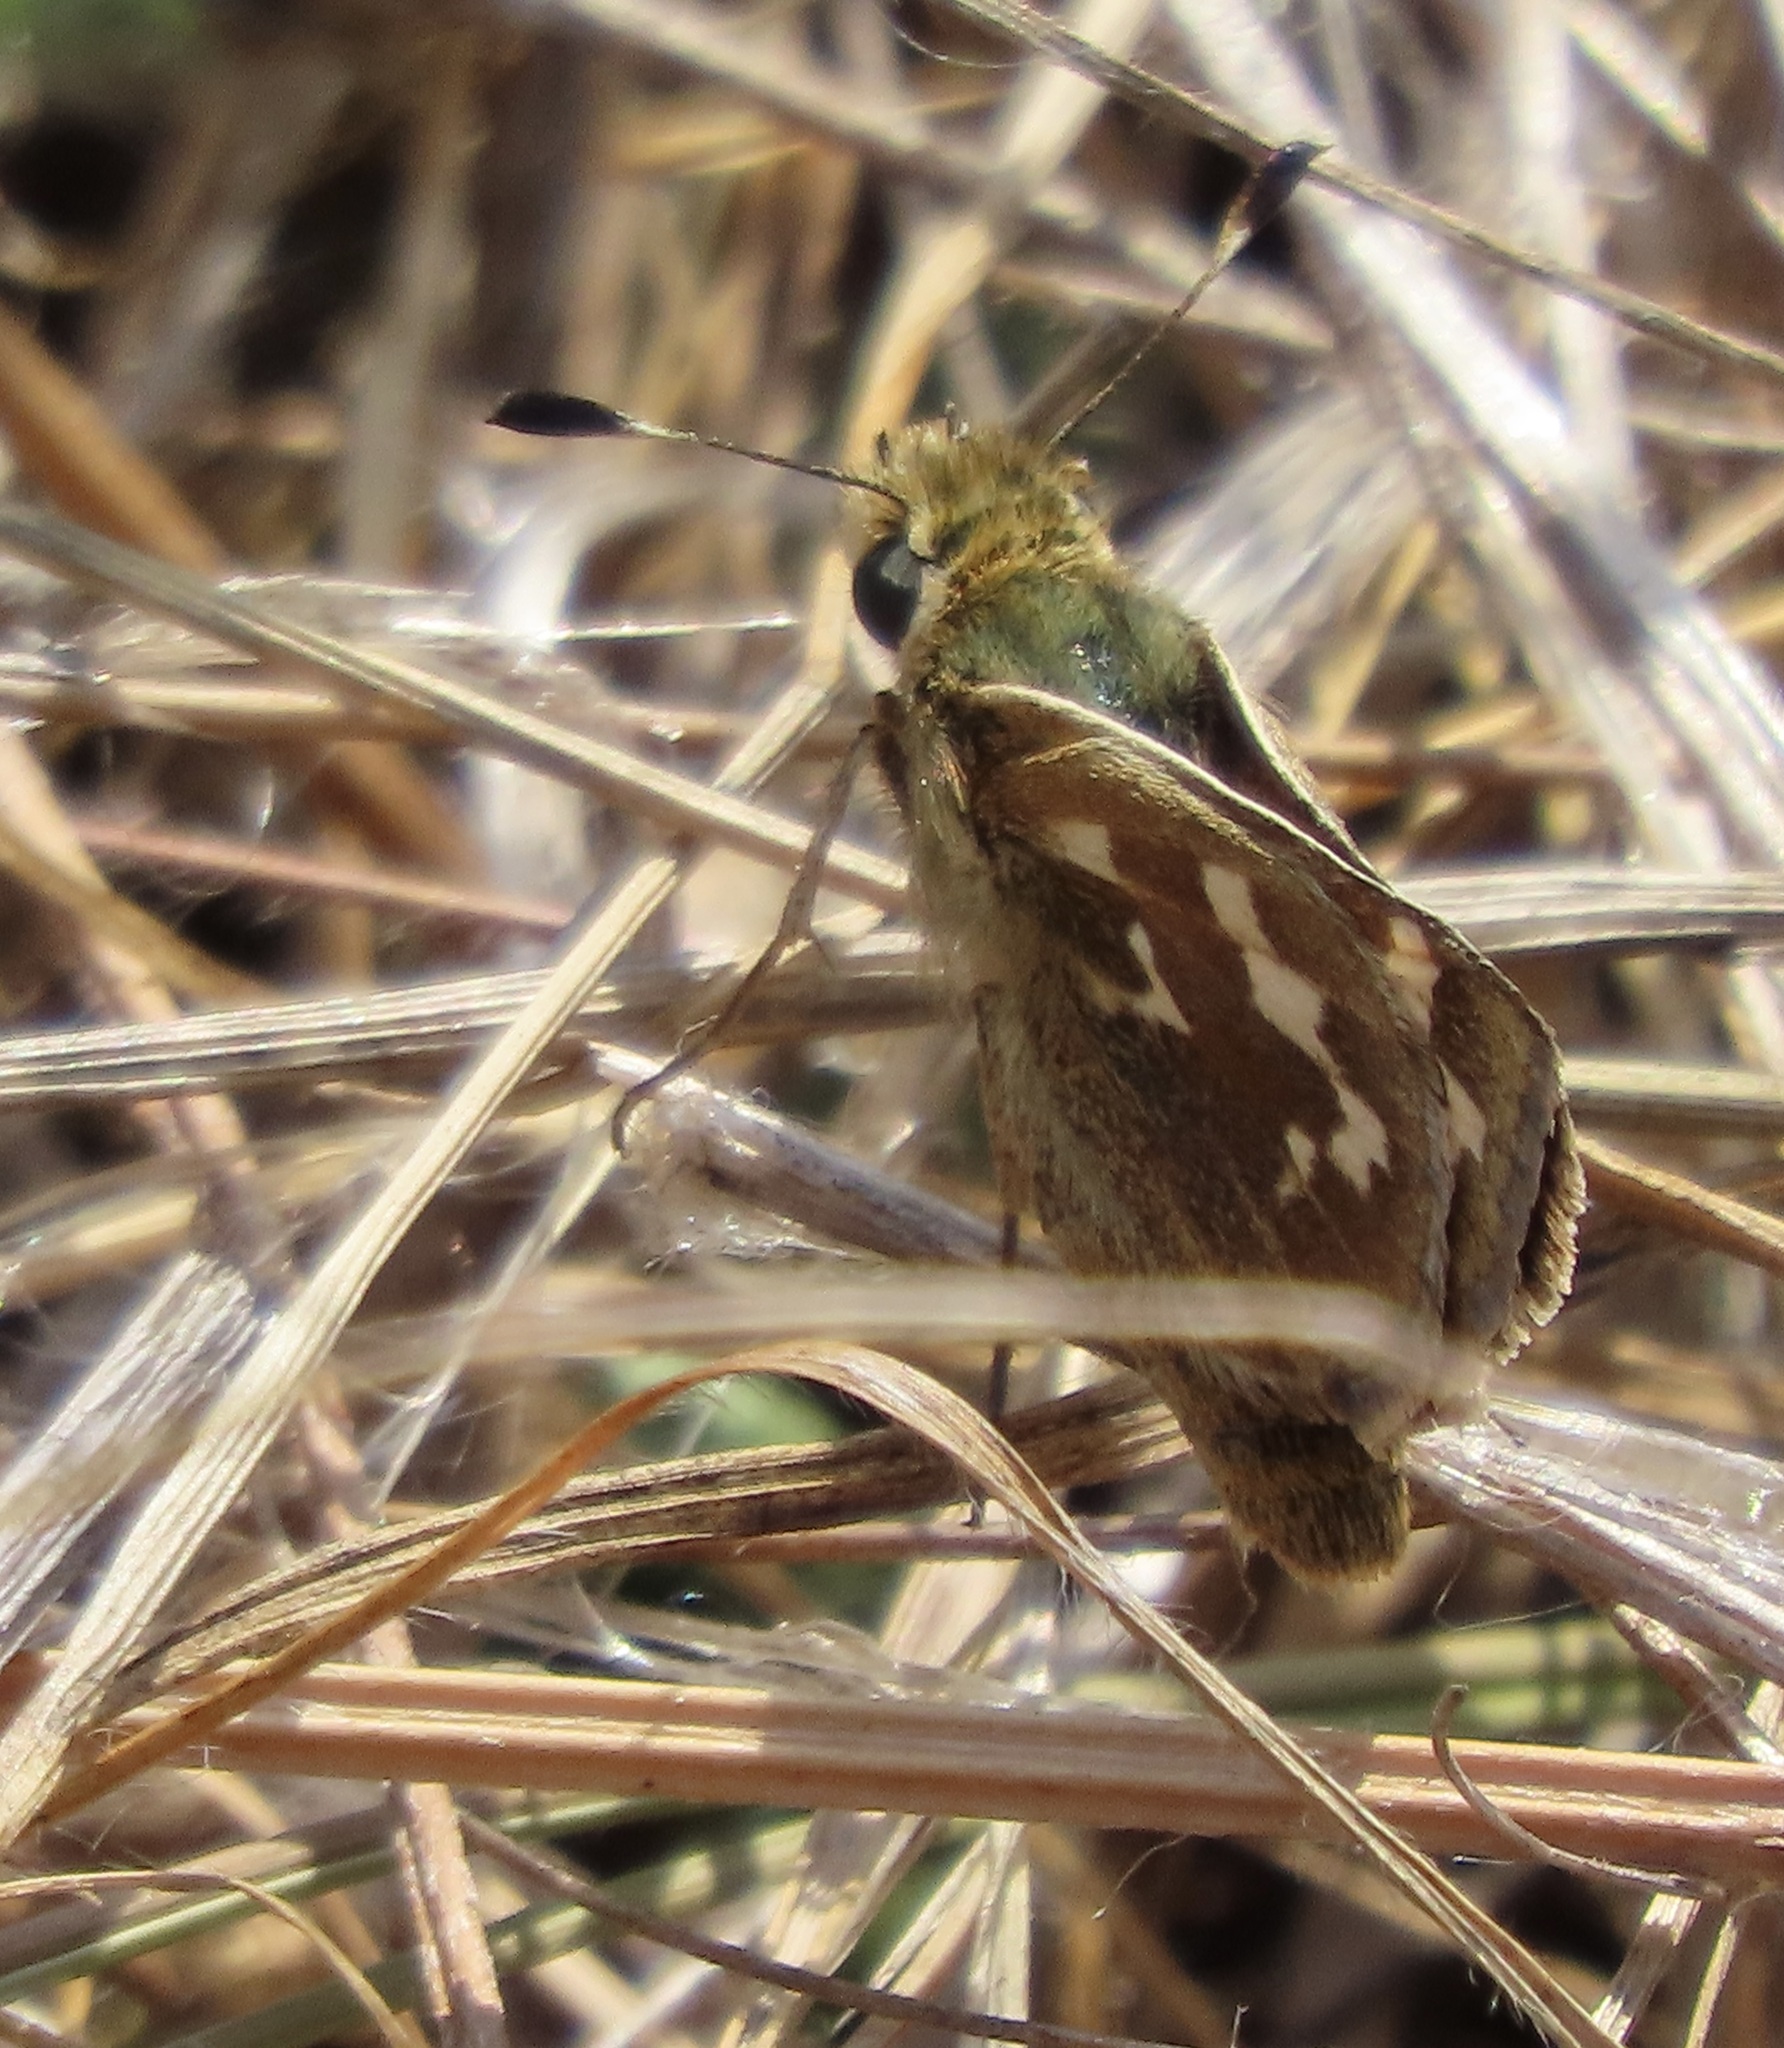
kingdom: Animalia
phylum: Arthropoda
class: Insecta
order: Lepidoptera
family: Hesperiidae
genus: Hesperia
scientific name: Hesperia harpalus
